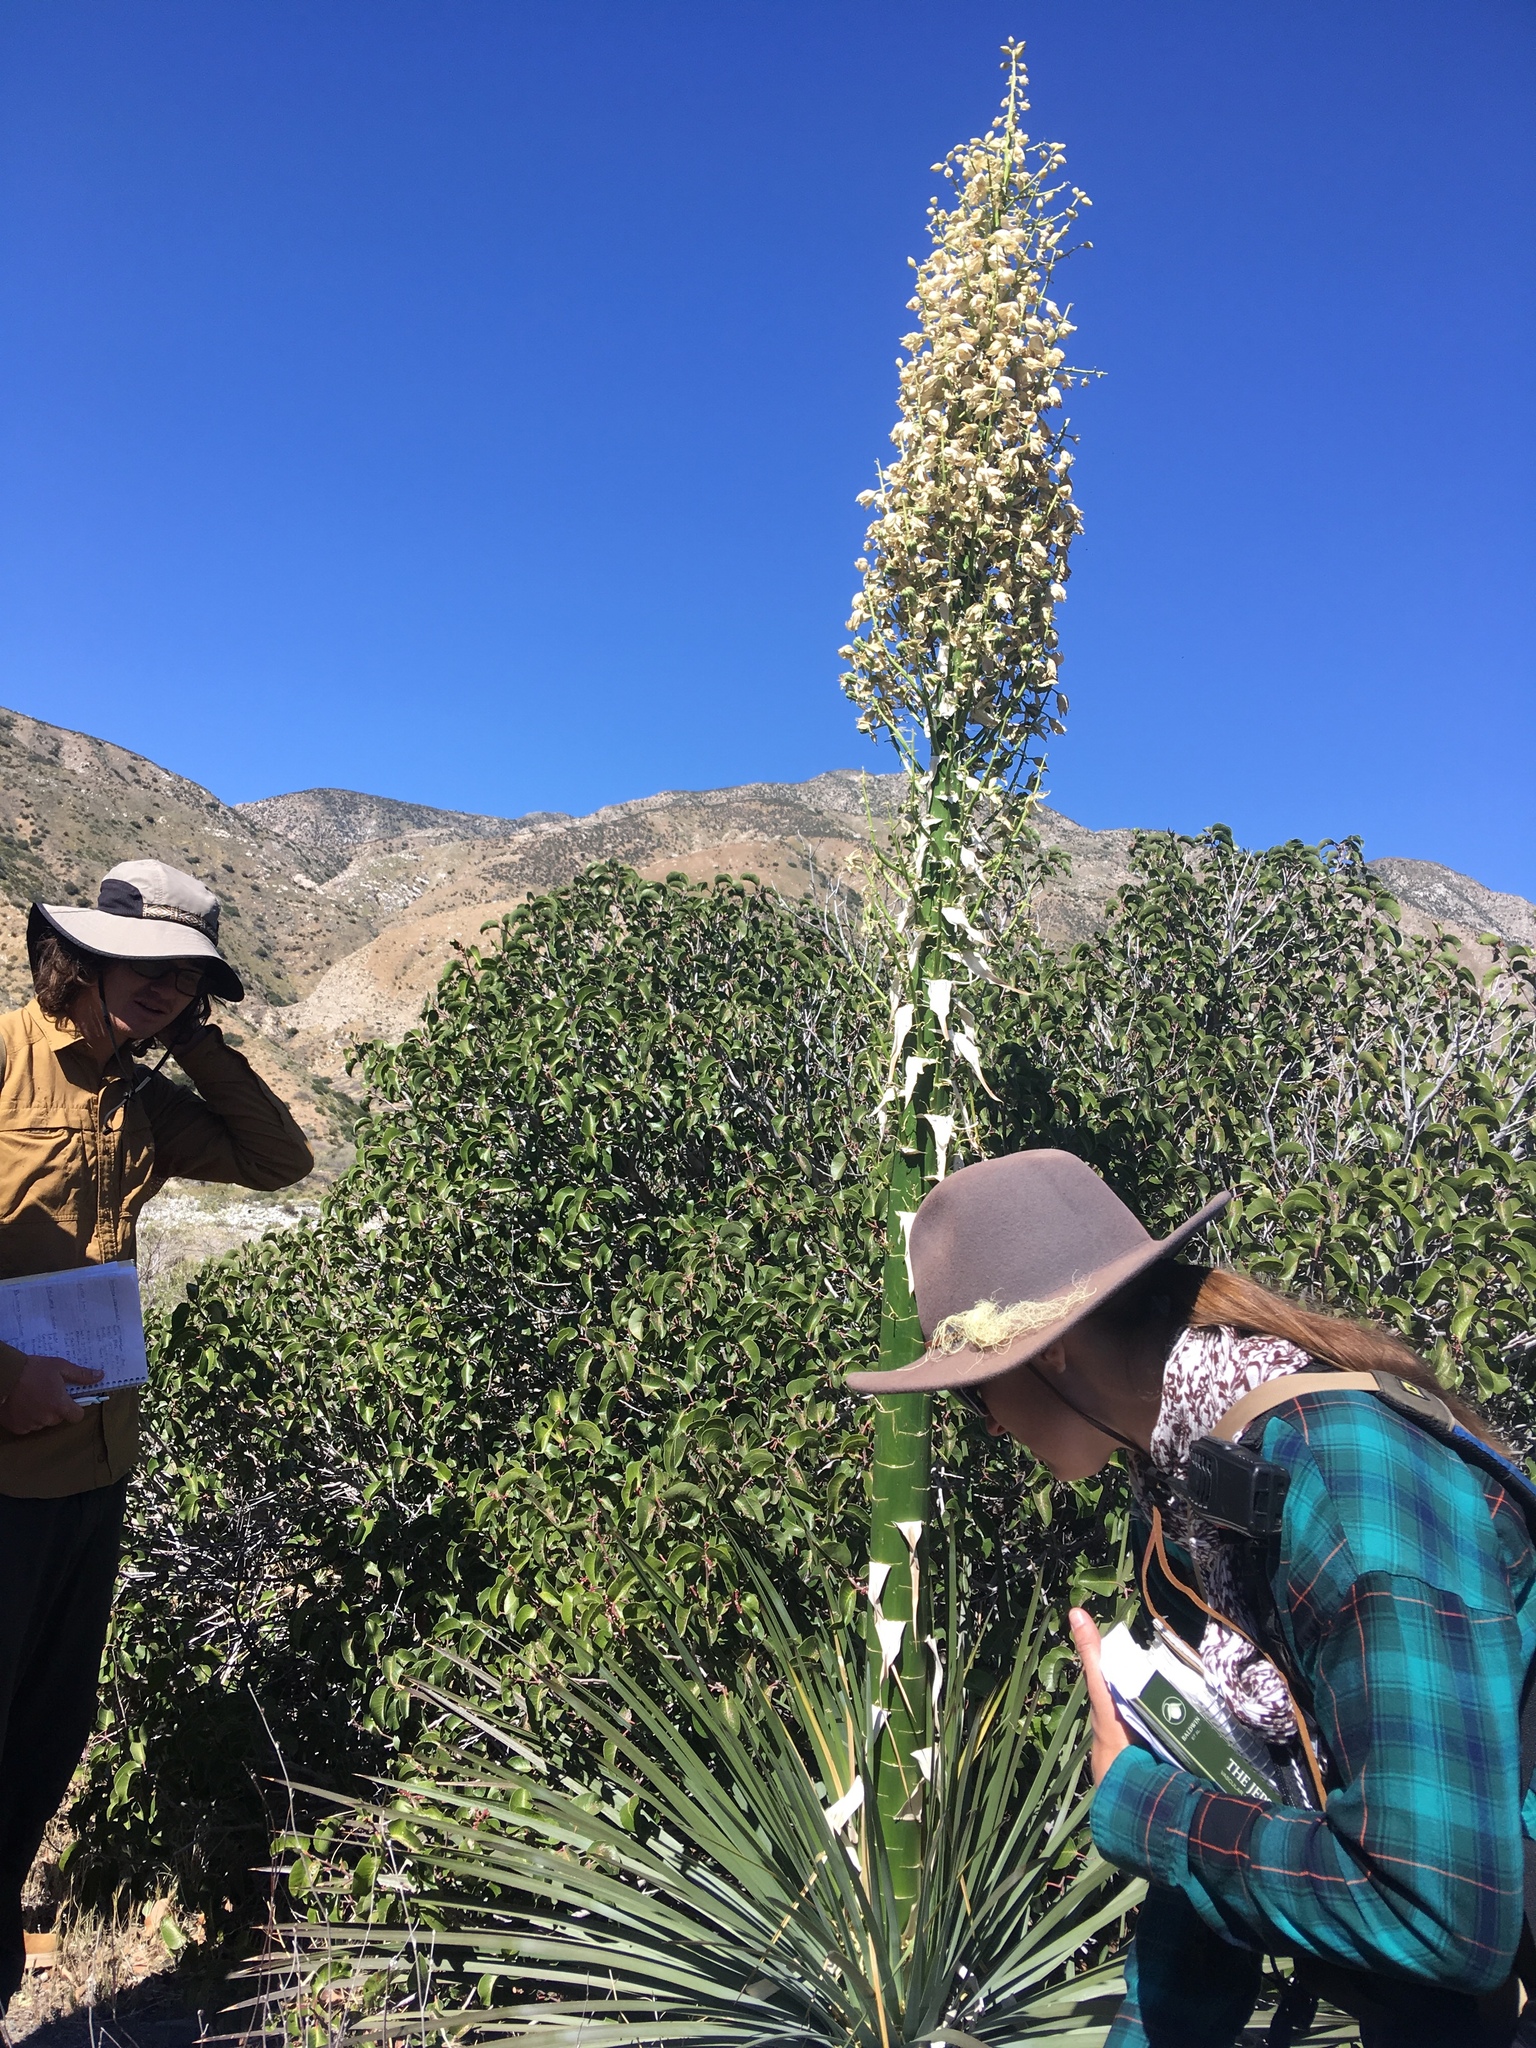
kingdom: Plantae
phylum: Tracheophyta
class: Liliopsida
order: Asparagales
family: Asparagaceae
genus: Hesperoyucca
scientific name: Hesperoyucca whipplei
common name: Our lord's-candle
